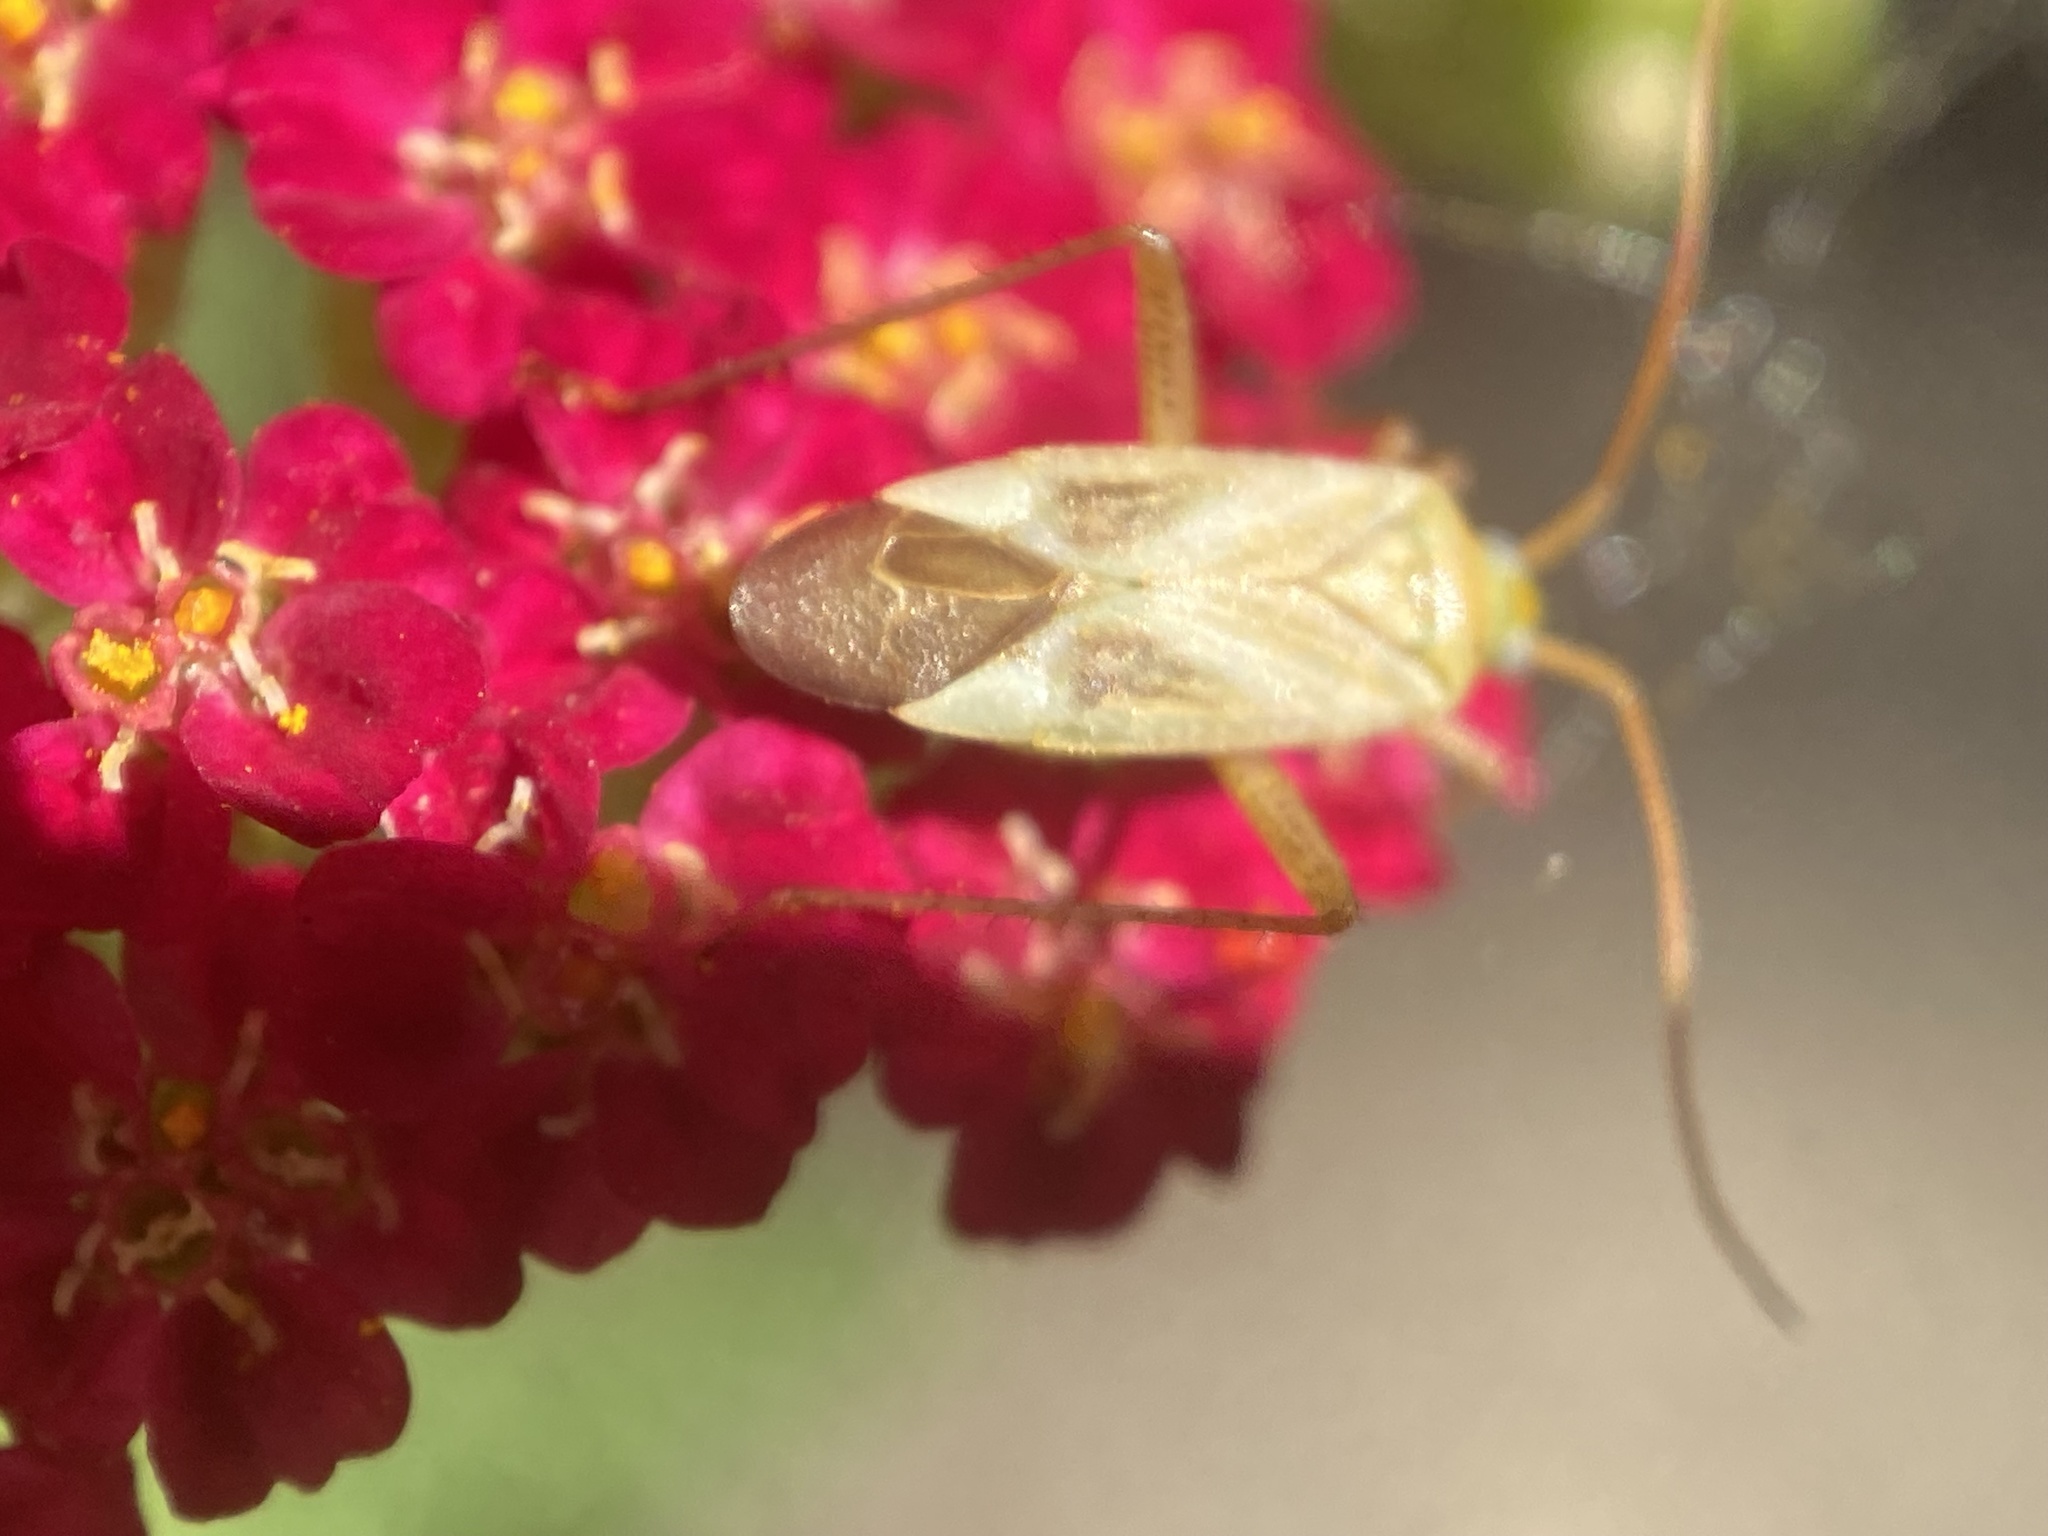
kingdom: Animalia
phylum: Arthropoda
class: Insecta
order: Hemiptera
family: Miridae
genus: Adelphocoris
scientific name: Adelphocoris lineolatus
